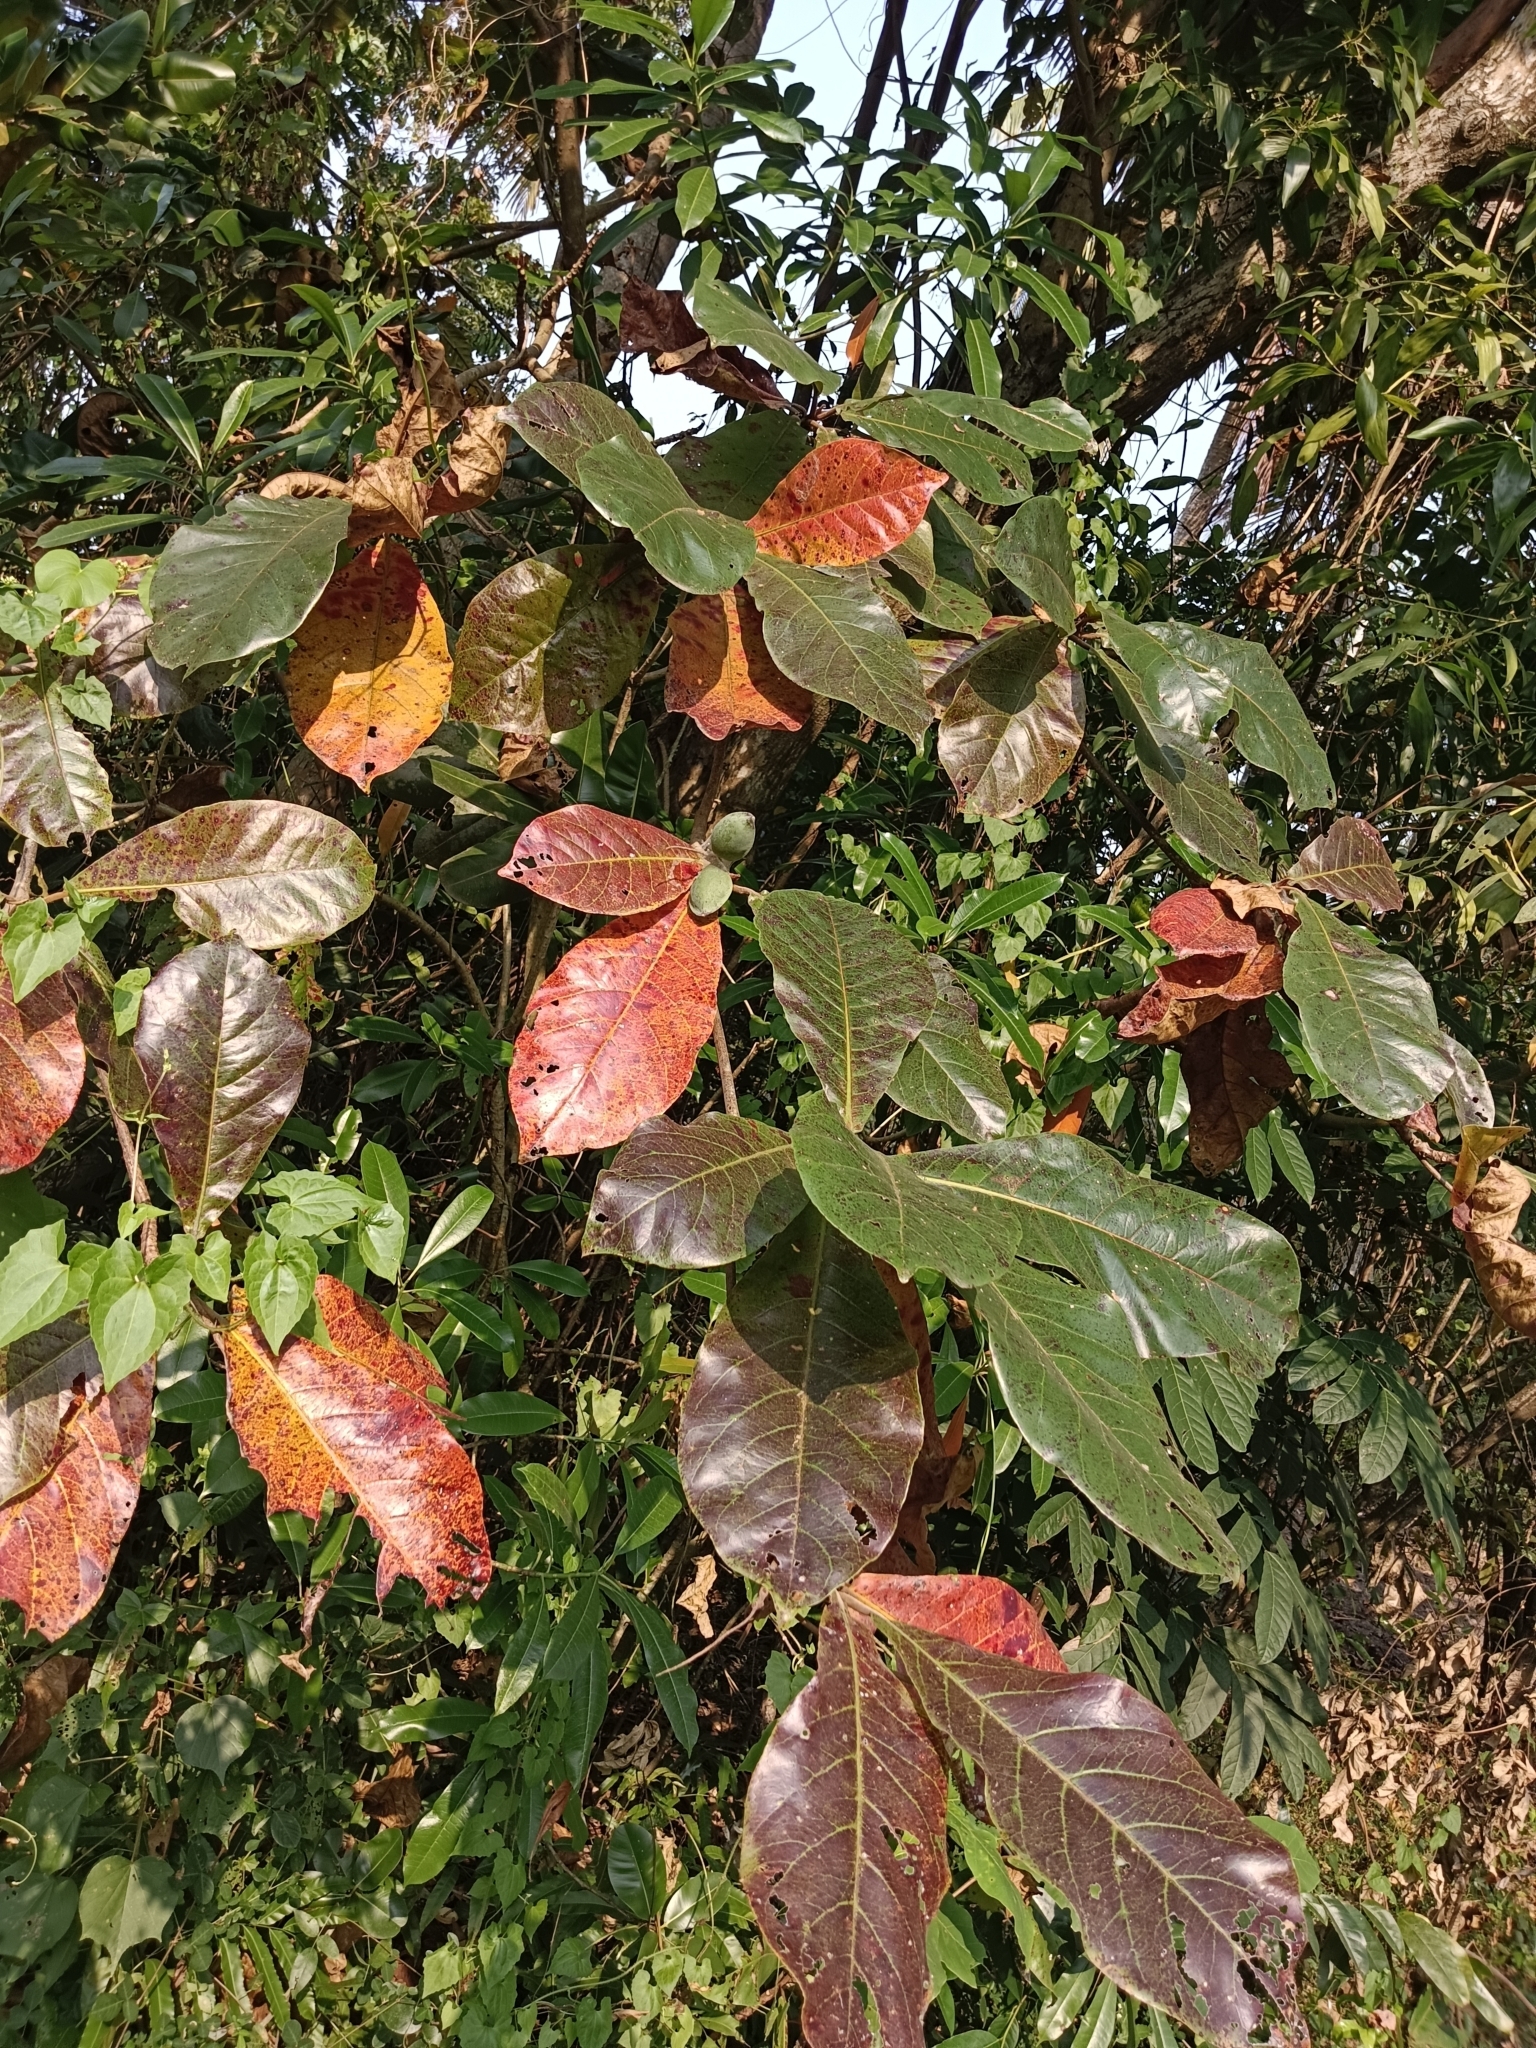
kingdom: Plantae
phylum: Tracheophyta
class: Magnoliopsida
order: Myrtales
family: Combretaceae
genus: Terminalia
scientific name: Terminalia catappa
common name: Tropical almond
